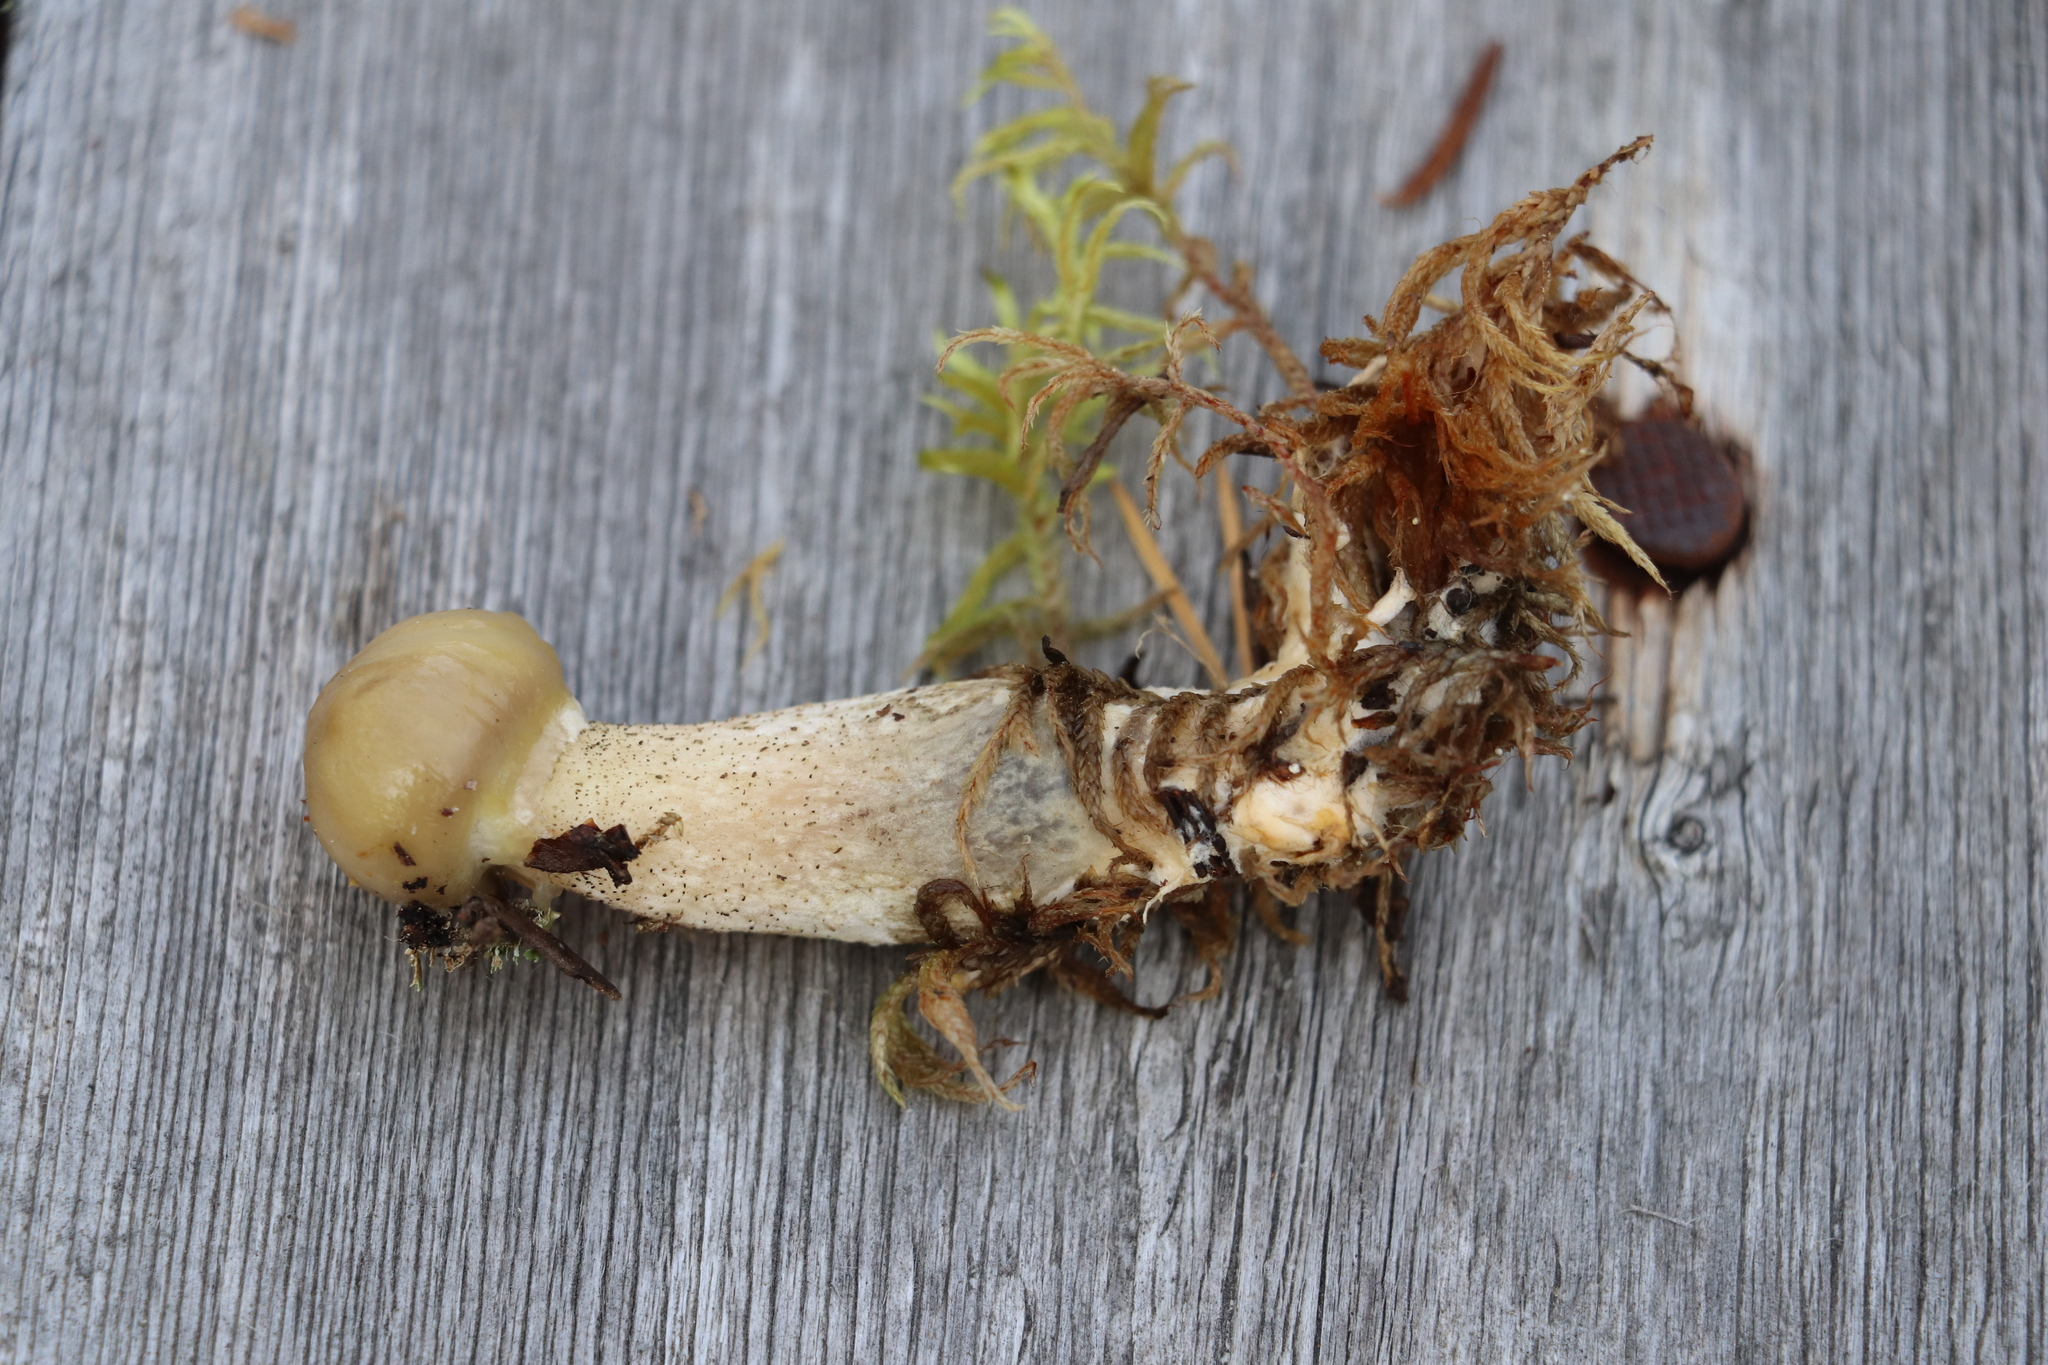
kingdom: Fungi
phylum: Basidiomycota
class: Agaricomycetes
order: Boletales
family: Suillaceae
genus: Suillus
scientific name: Suillus acidus
